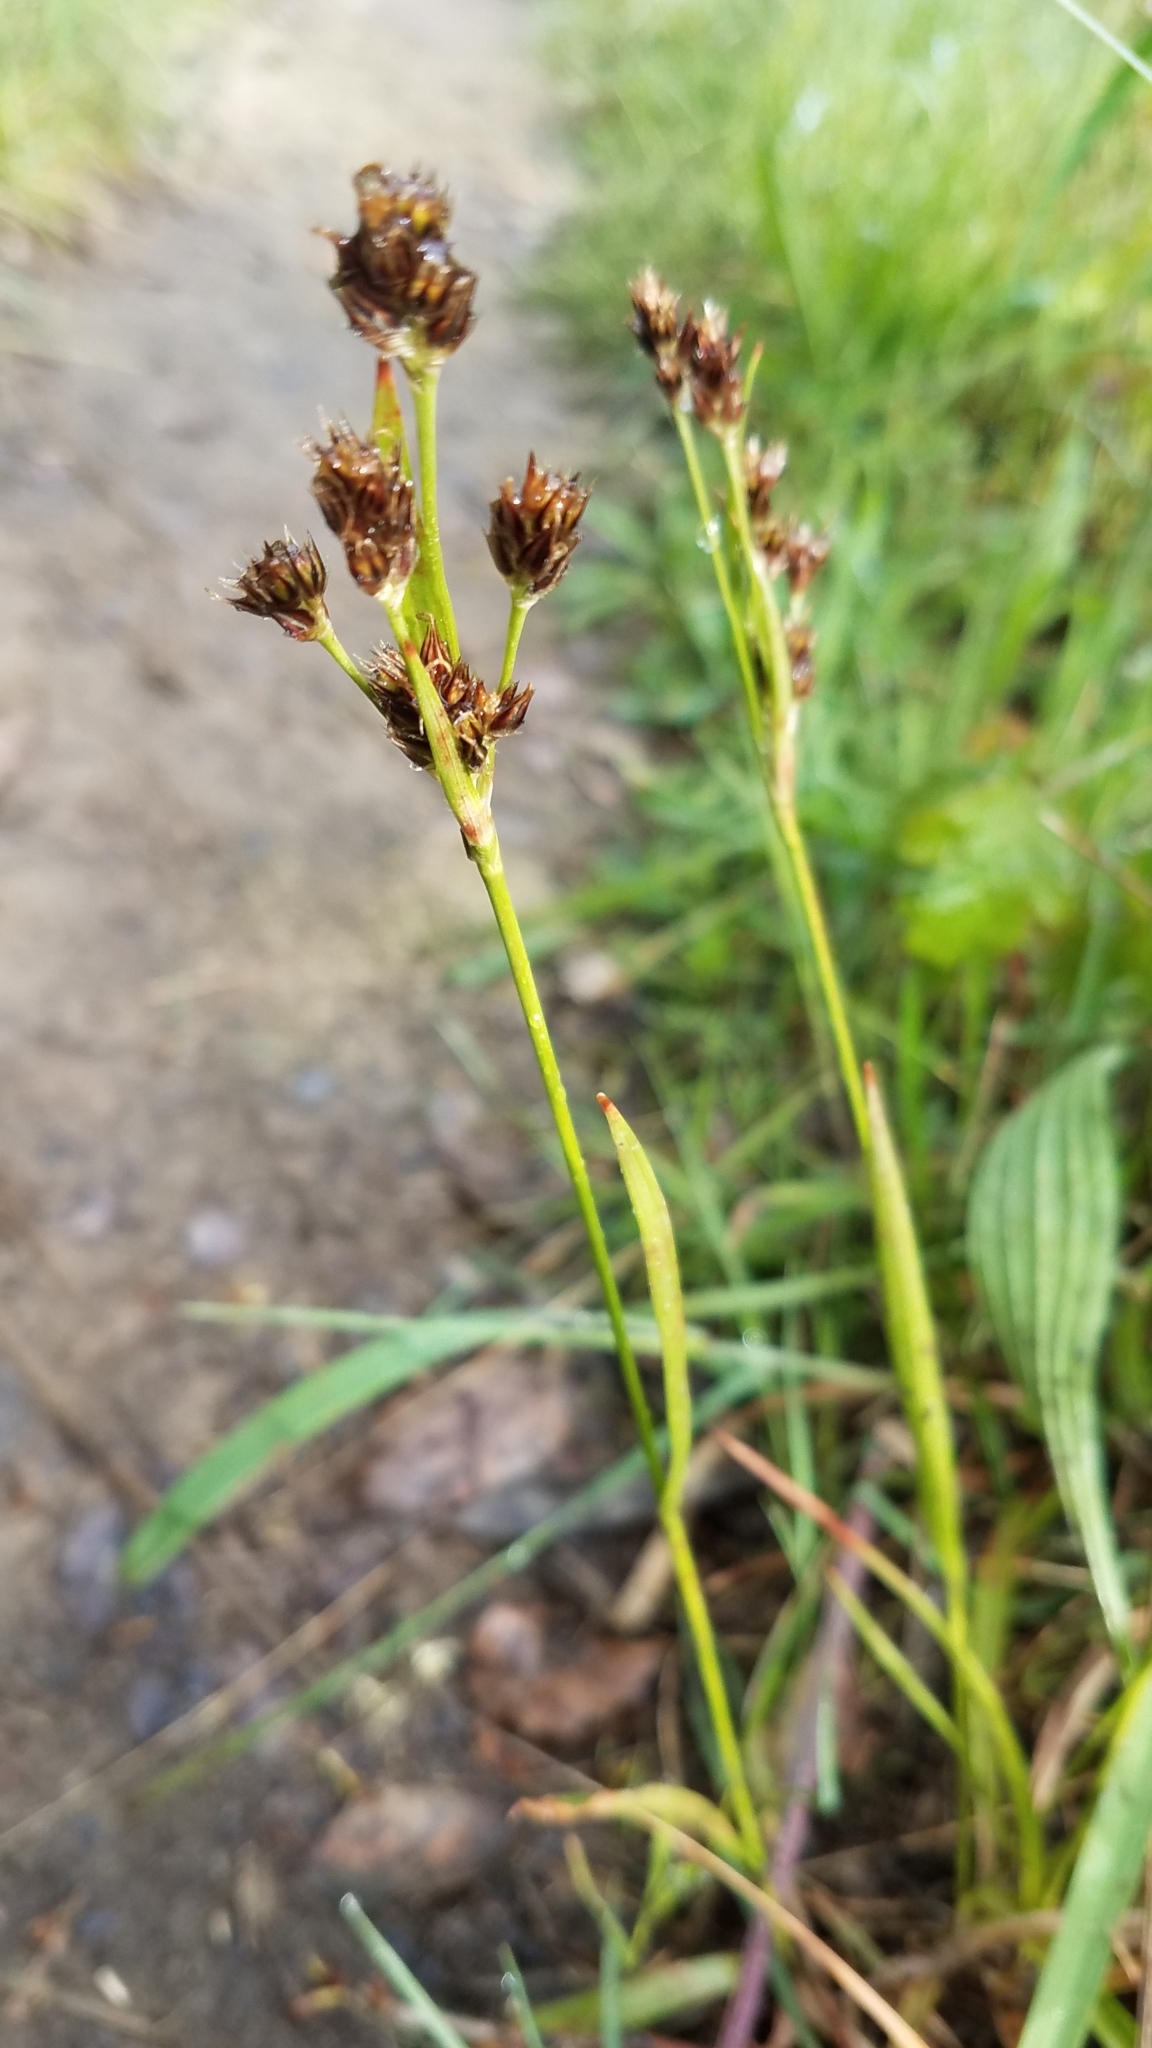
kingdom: Plantae
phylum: Tracheophyta
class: Liliopsida
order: Poales
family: Juncaceae
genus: Luzula
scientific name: Luzula macrantha
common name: Large-anthered woodrush
